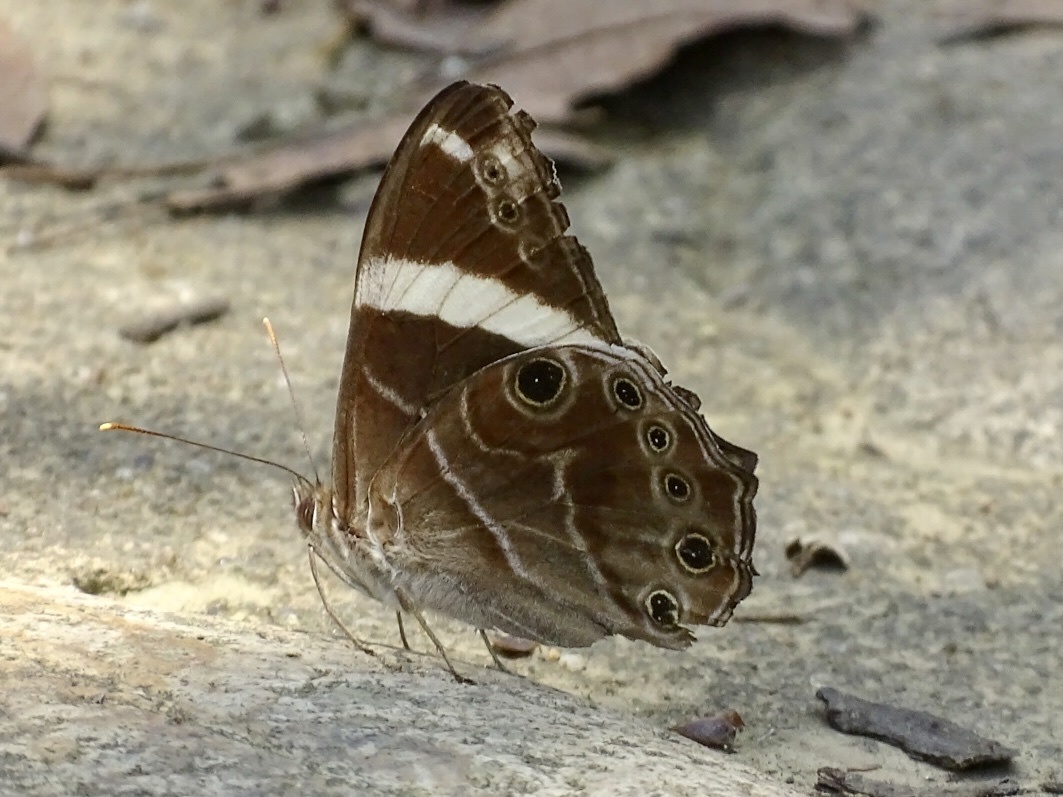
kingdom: Animalia
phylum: Arthropoda
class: Insecta
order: Lepidoptera
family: Nymphalidae
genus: Lethe
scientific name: Lethe confusa
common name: Banded treebrown
